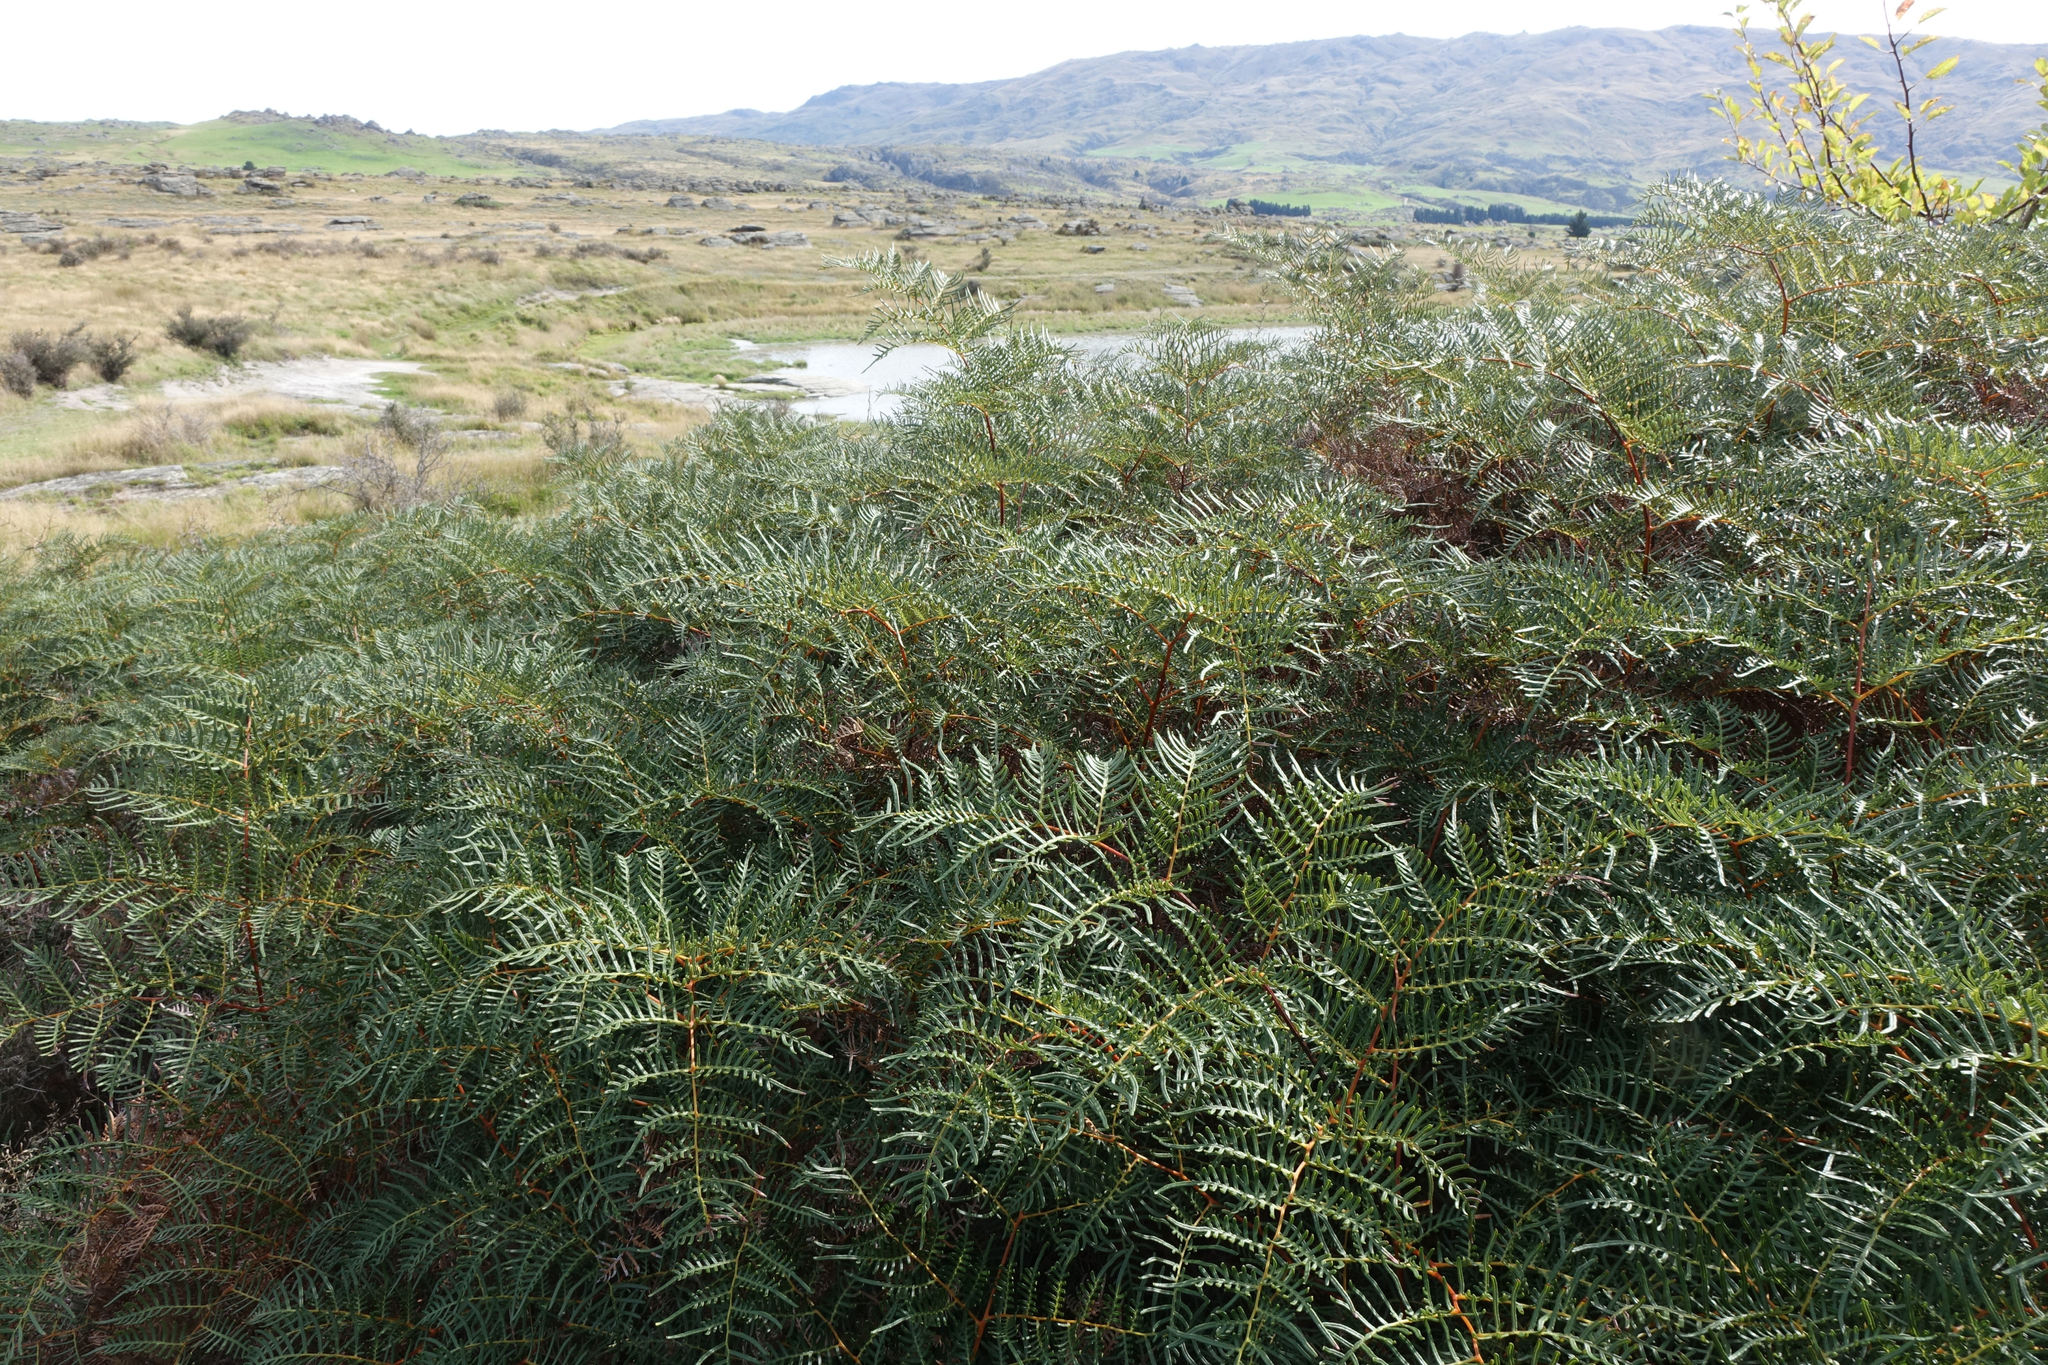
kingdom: Plantae
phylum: Tracheophyta
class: Polypodiopsida
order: Polypodiales
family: Dennstaedtiaceae
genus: Pteridium
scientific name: Pteridium esculentum
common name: Bracken fern
